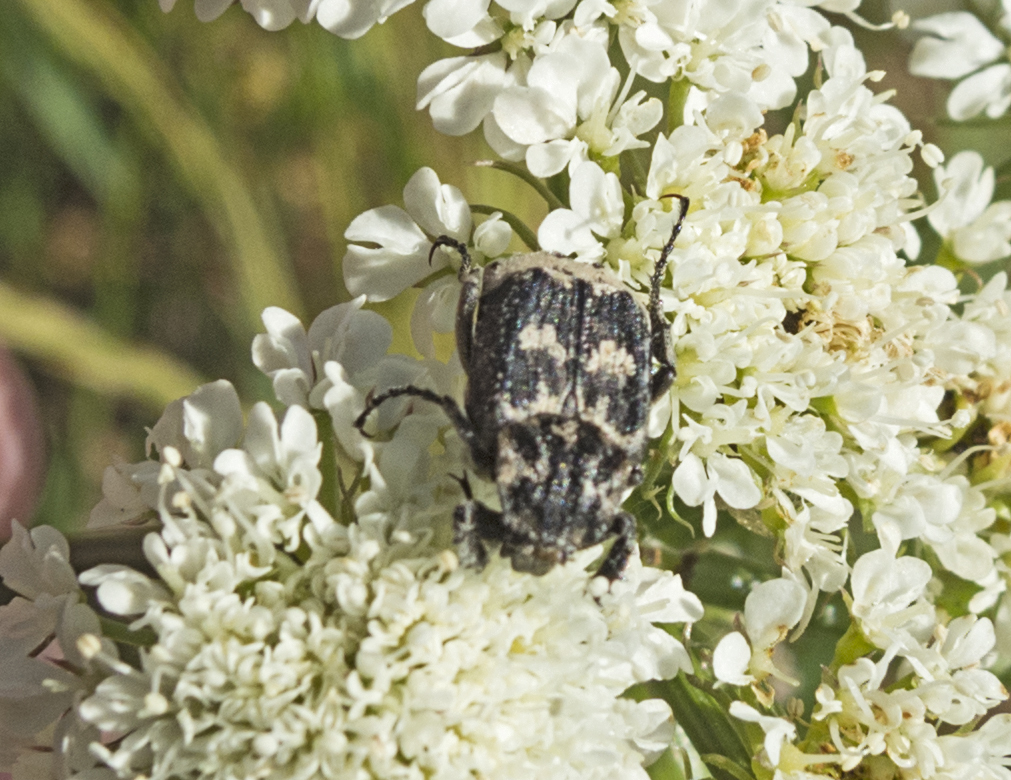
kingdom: Animalia
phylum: Arthropoda
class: Insecta
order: Coleoptera
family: Scarabaeidae
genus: Valgus
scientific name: Valgus hemipterus
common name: Bug flower chafer
